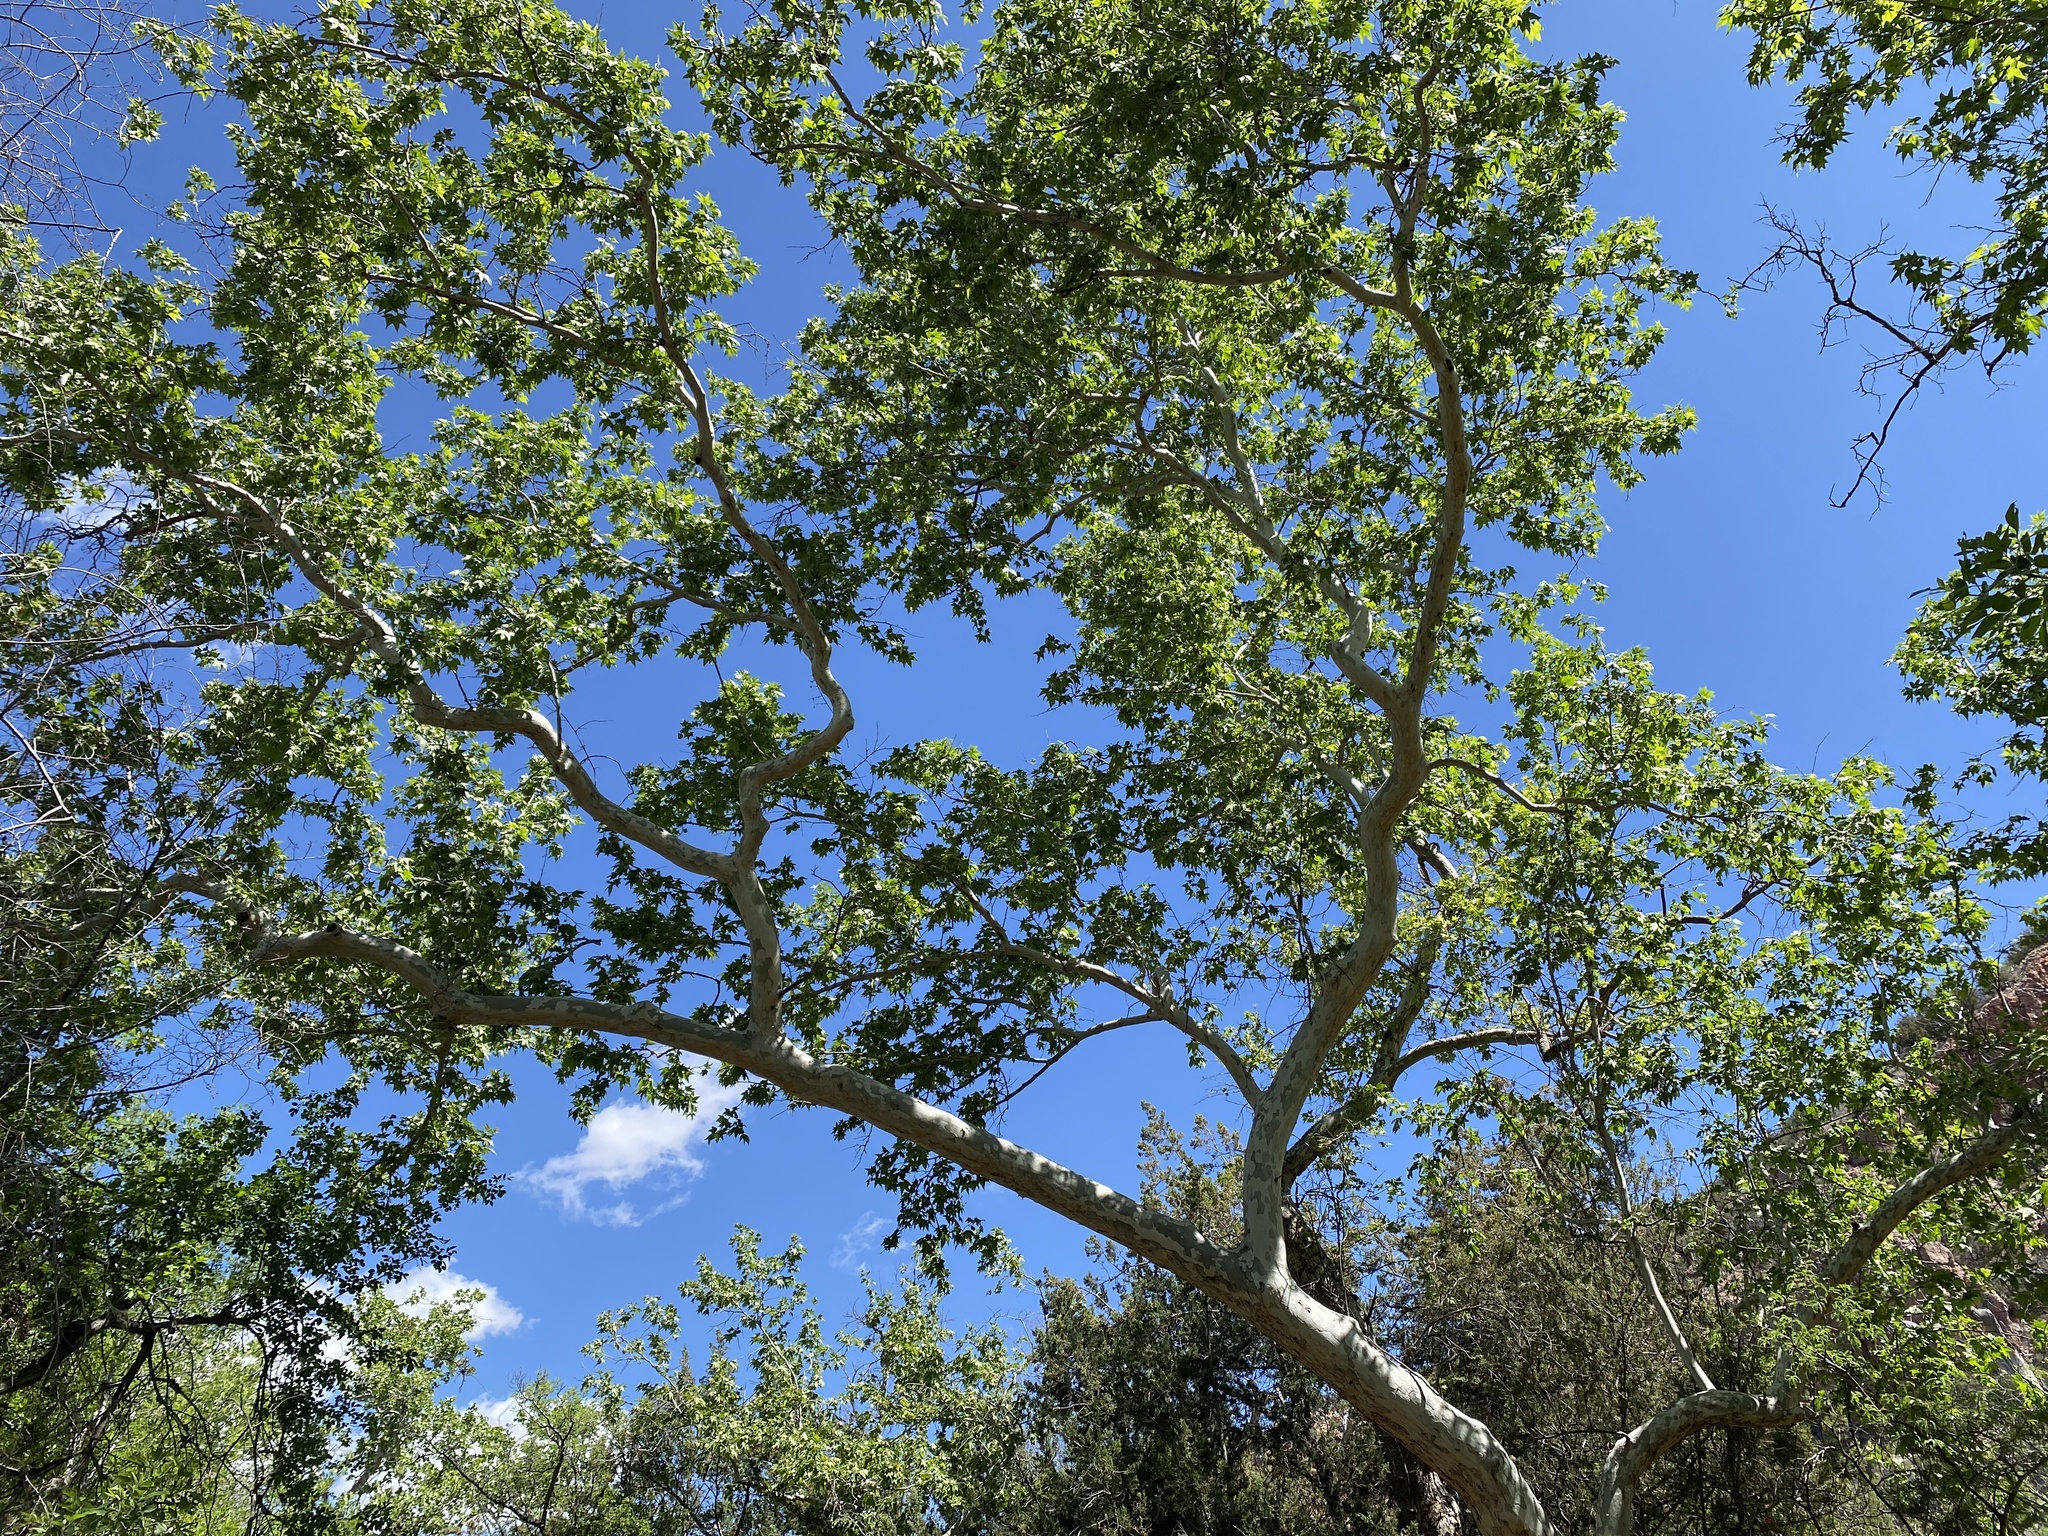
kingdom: Plantae
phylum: Tracheophyta
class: Magnoliopsida
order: Proteales
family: Platanaceae
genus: Platanus
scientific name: Platanus wrightii
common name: Arizona sycamore
